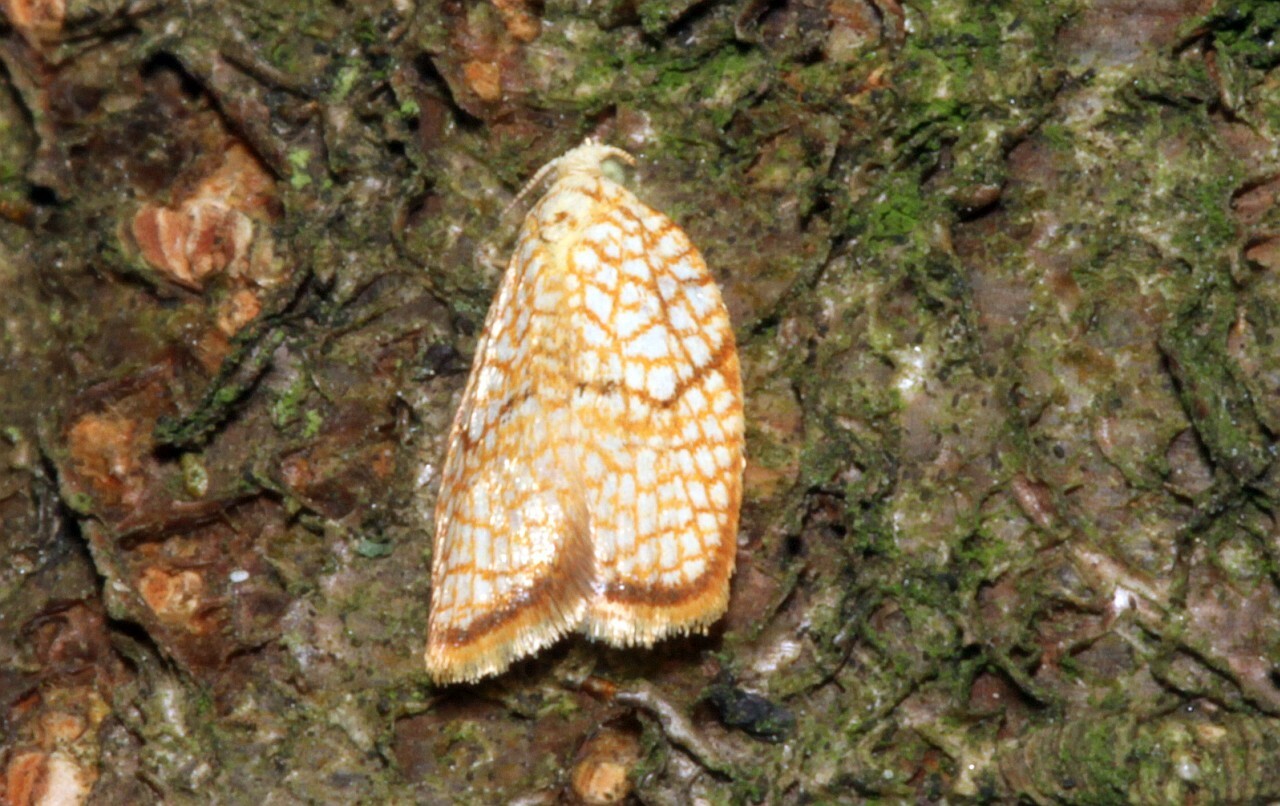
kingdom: Animalia
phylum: Arthropoda
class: Insecta
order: Lepidoptera
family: Tortricidae
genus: Acleris
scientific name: Acleris forsskaleana
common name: Maple button
